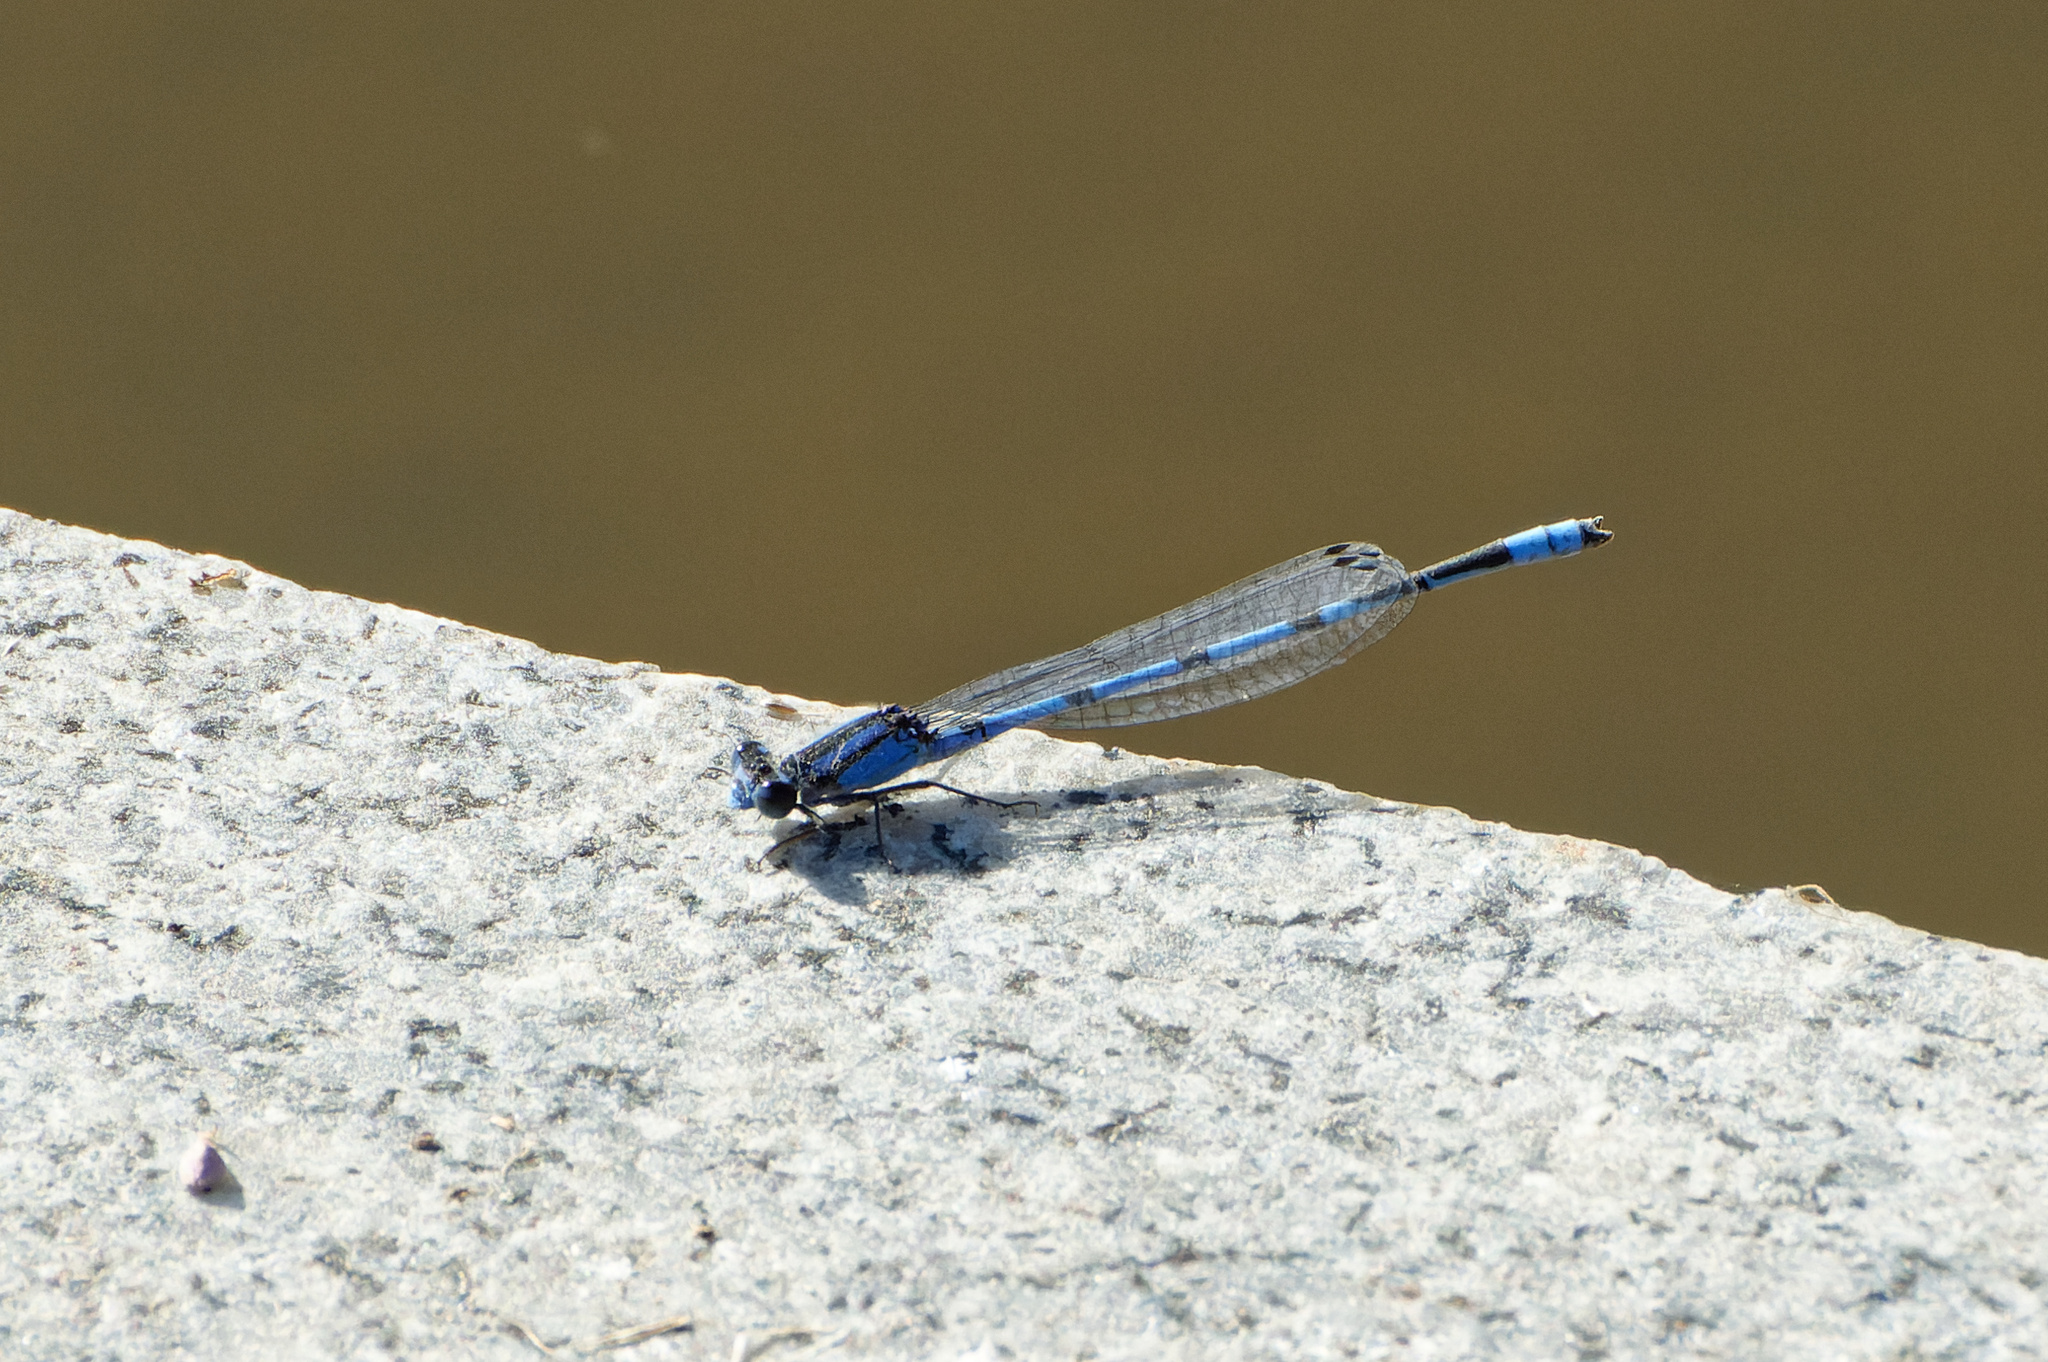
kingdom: Animalia
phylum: Arthropoda
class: Insecta
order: Odonata
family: Coenagrionidae
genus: Enallagma
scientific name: Enallagma civile
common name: Damselfly
